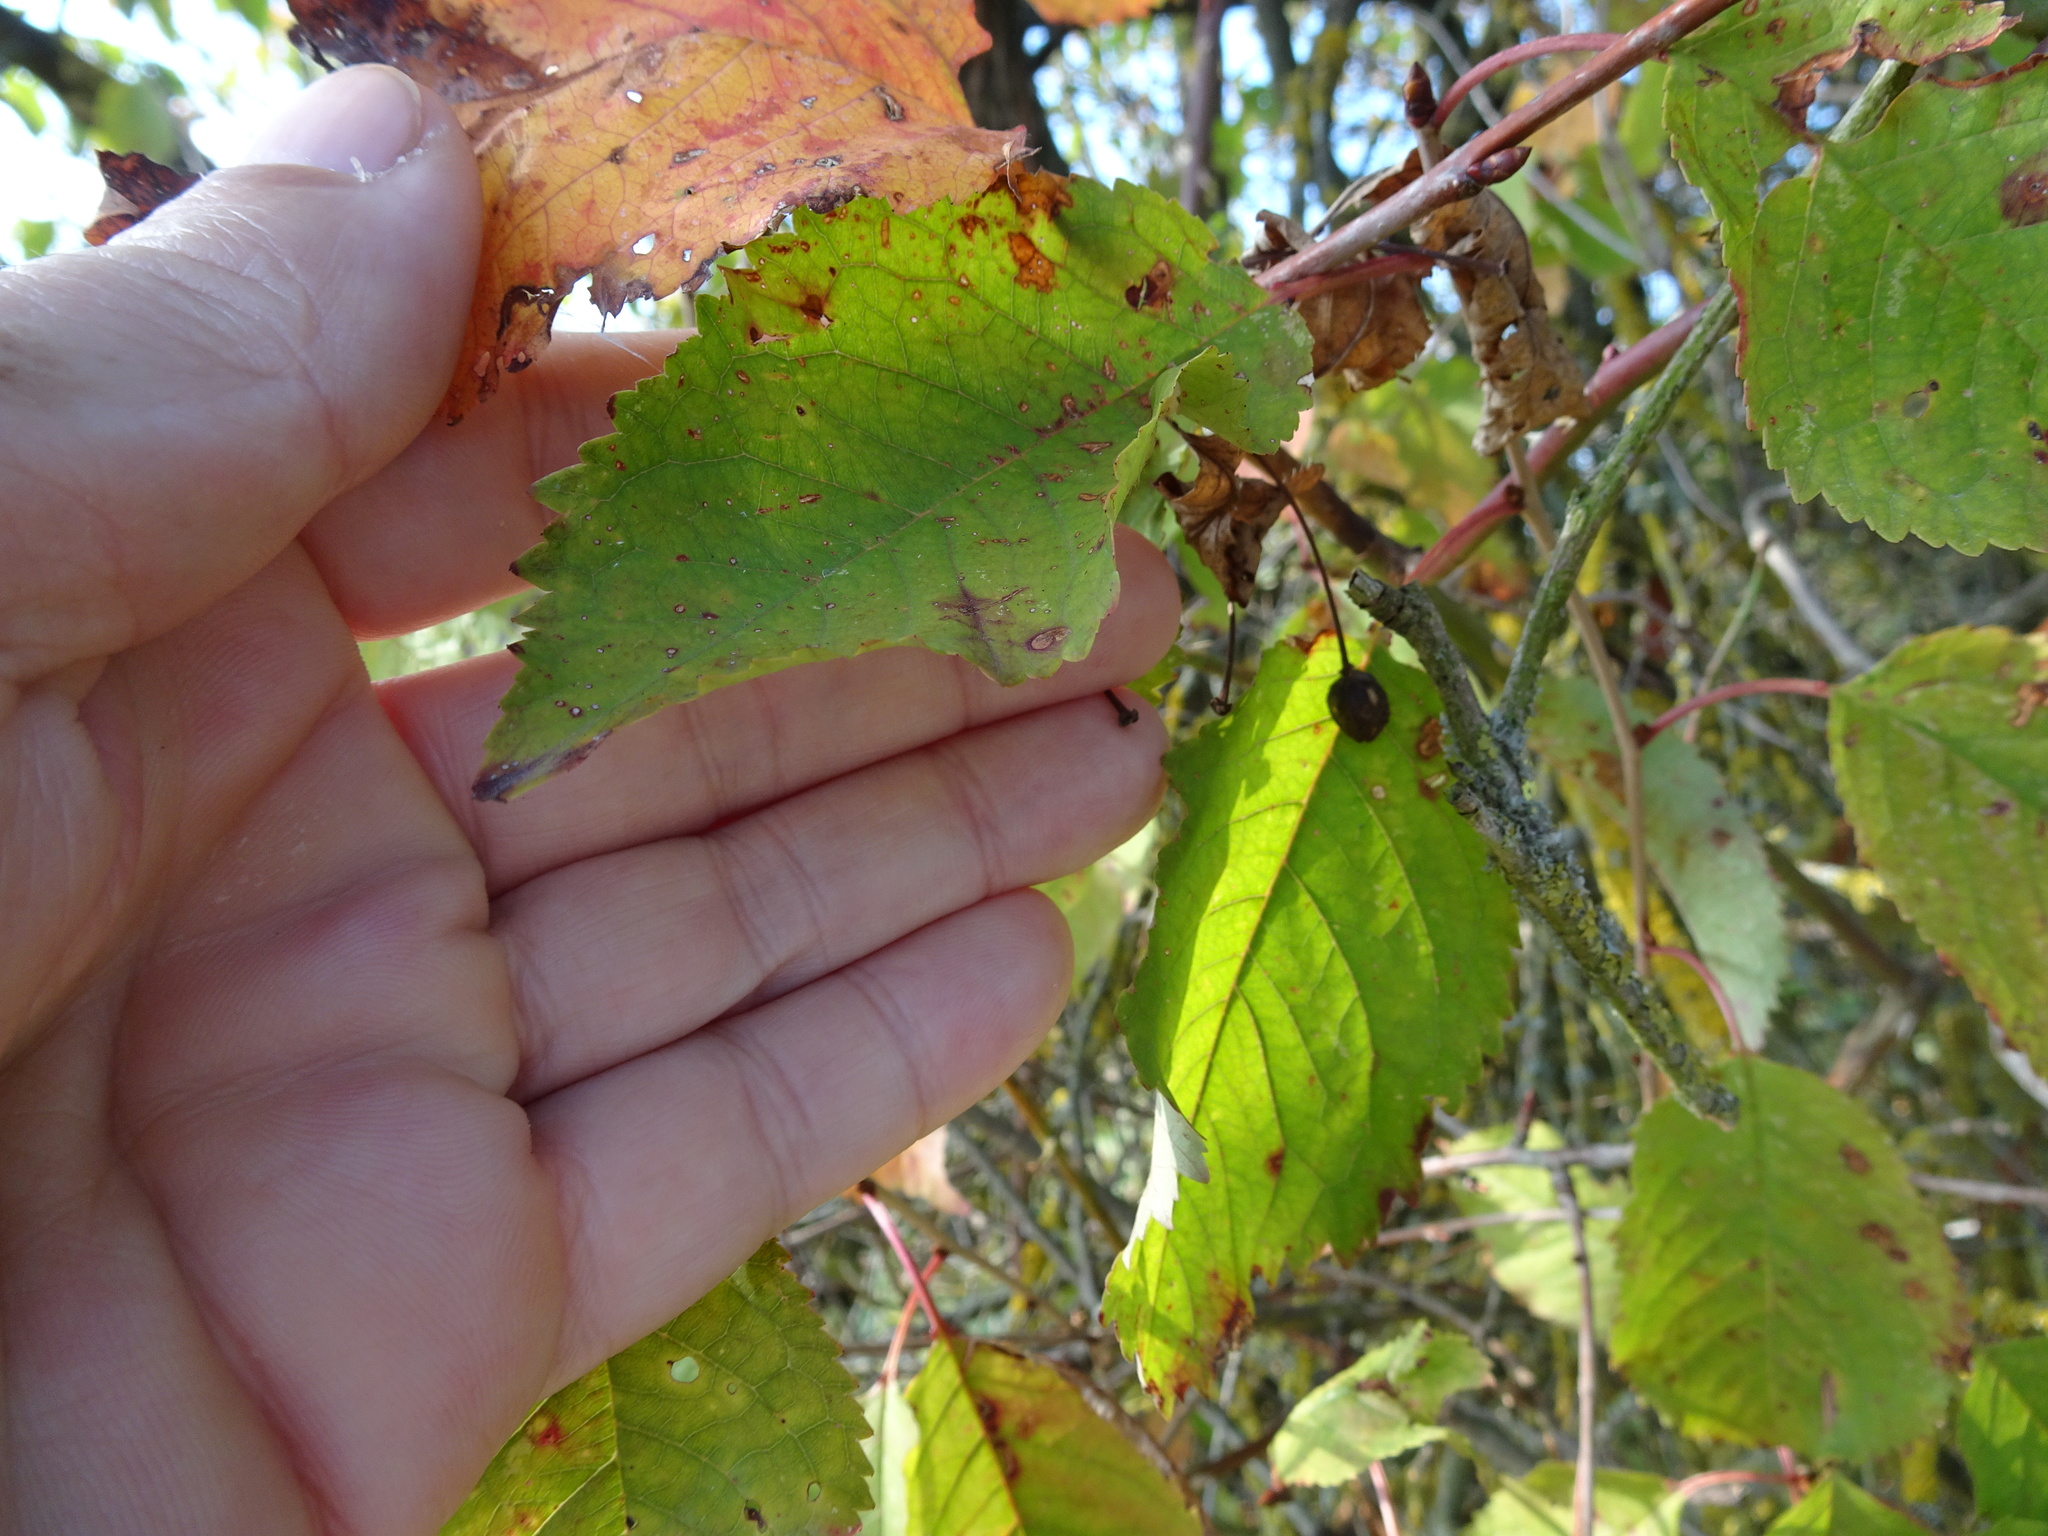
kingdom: Plantae
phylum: Tracheophyta
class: Magnoliopsida
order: Rosales
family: Rosaceae
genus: Prunus
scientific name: Prunus avium
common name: Sweet cherry
